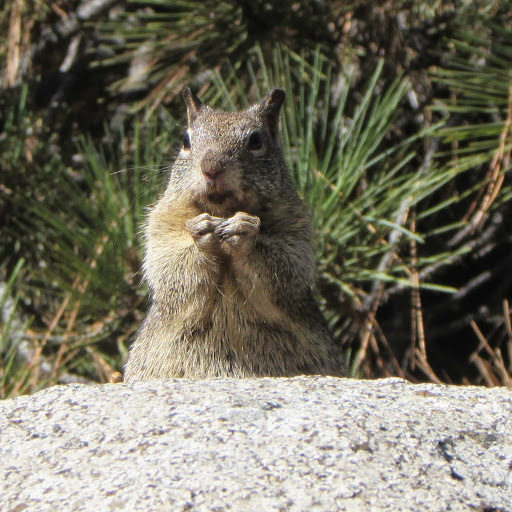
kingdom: Animalia
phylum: Chordata
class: Mammalia
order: Rodentia
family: Sciuridae
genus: Otospermophilus
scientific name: Otospermophilus beecheyi
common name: California ground squirrel
